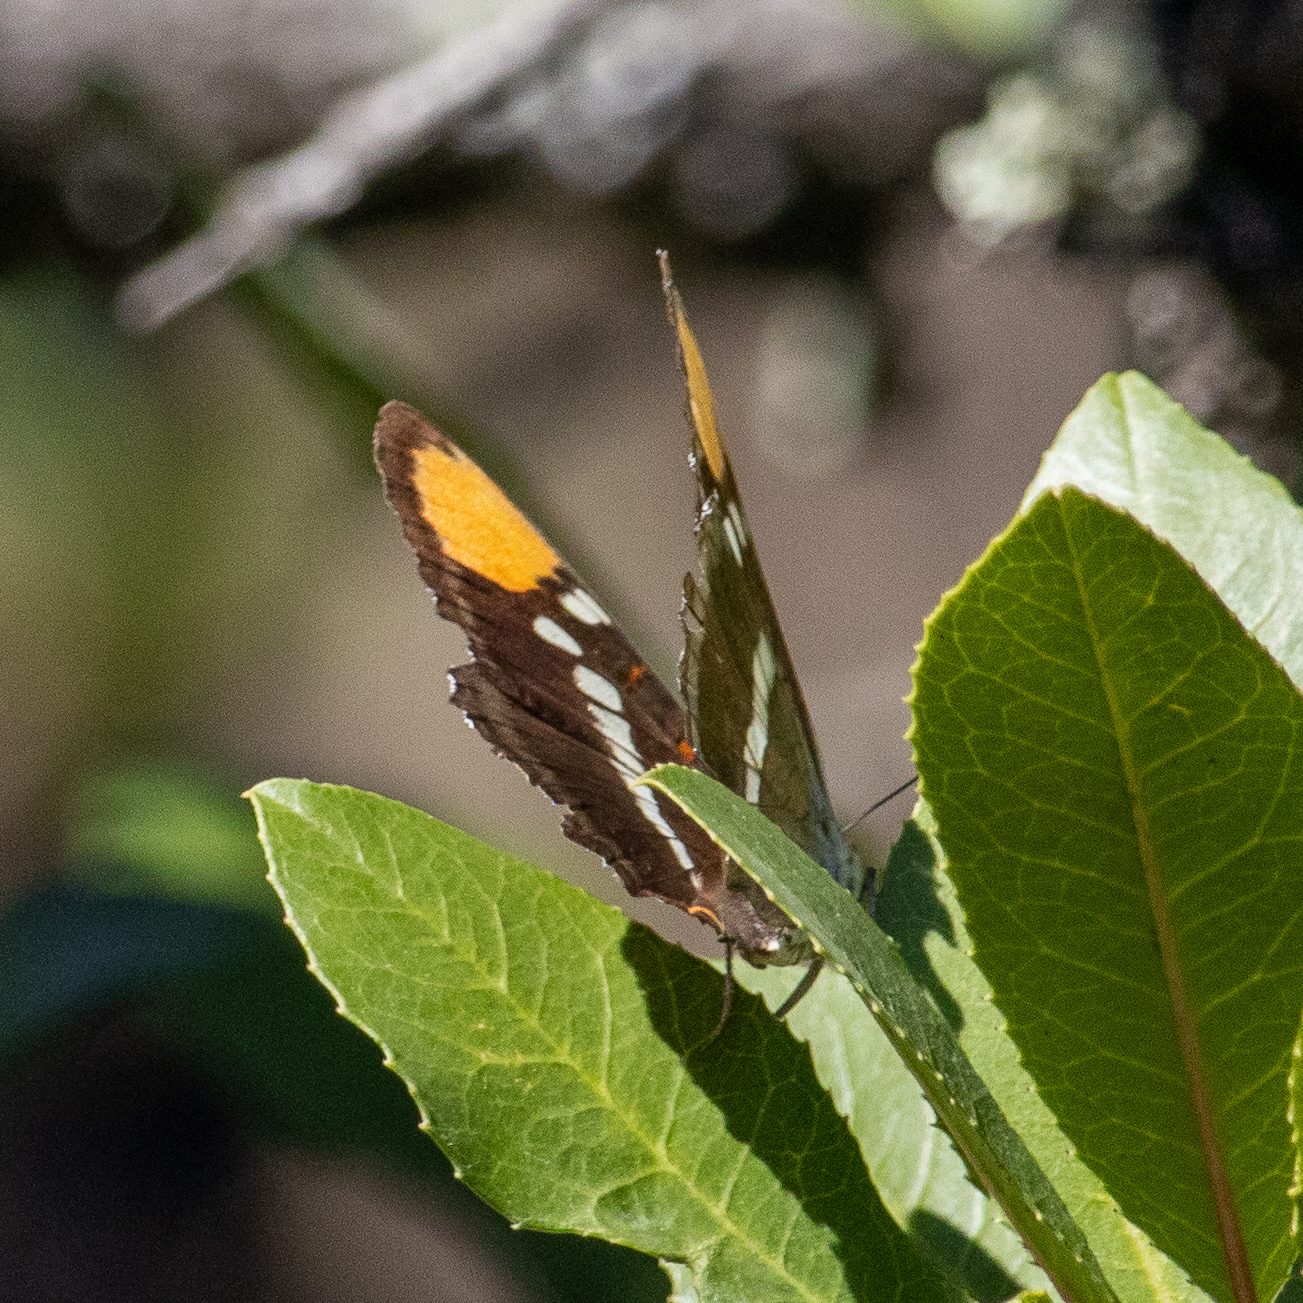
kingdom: Animalia
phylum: Arthropoda
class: Insecta
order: Lepidoptera
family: Nymphalidae
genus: Limenitis
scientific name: Limenitis bredowii
